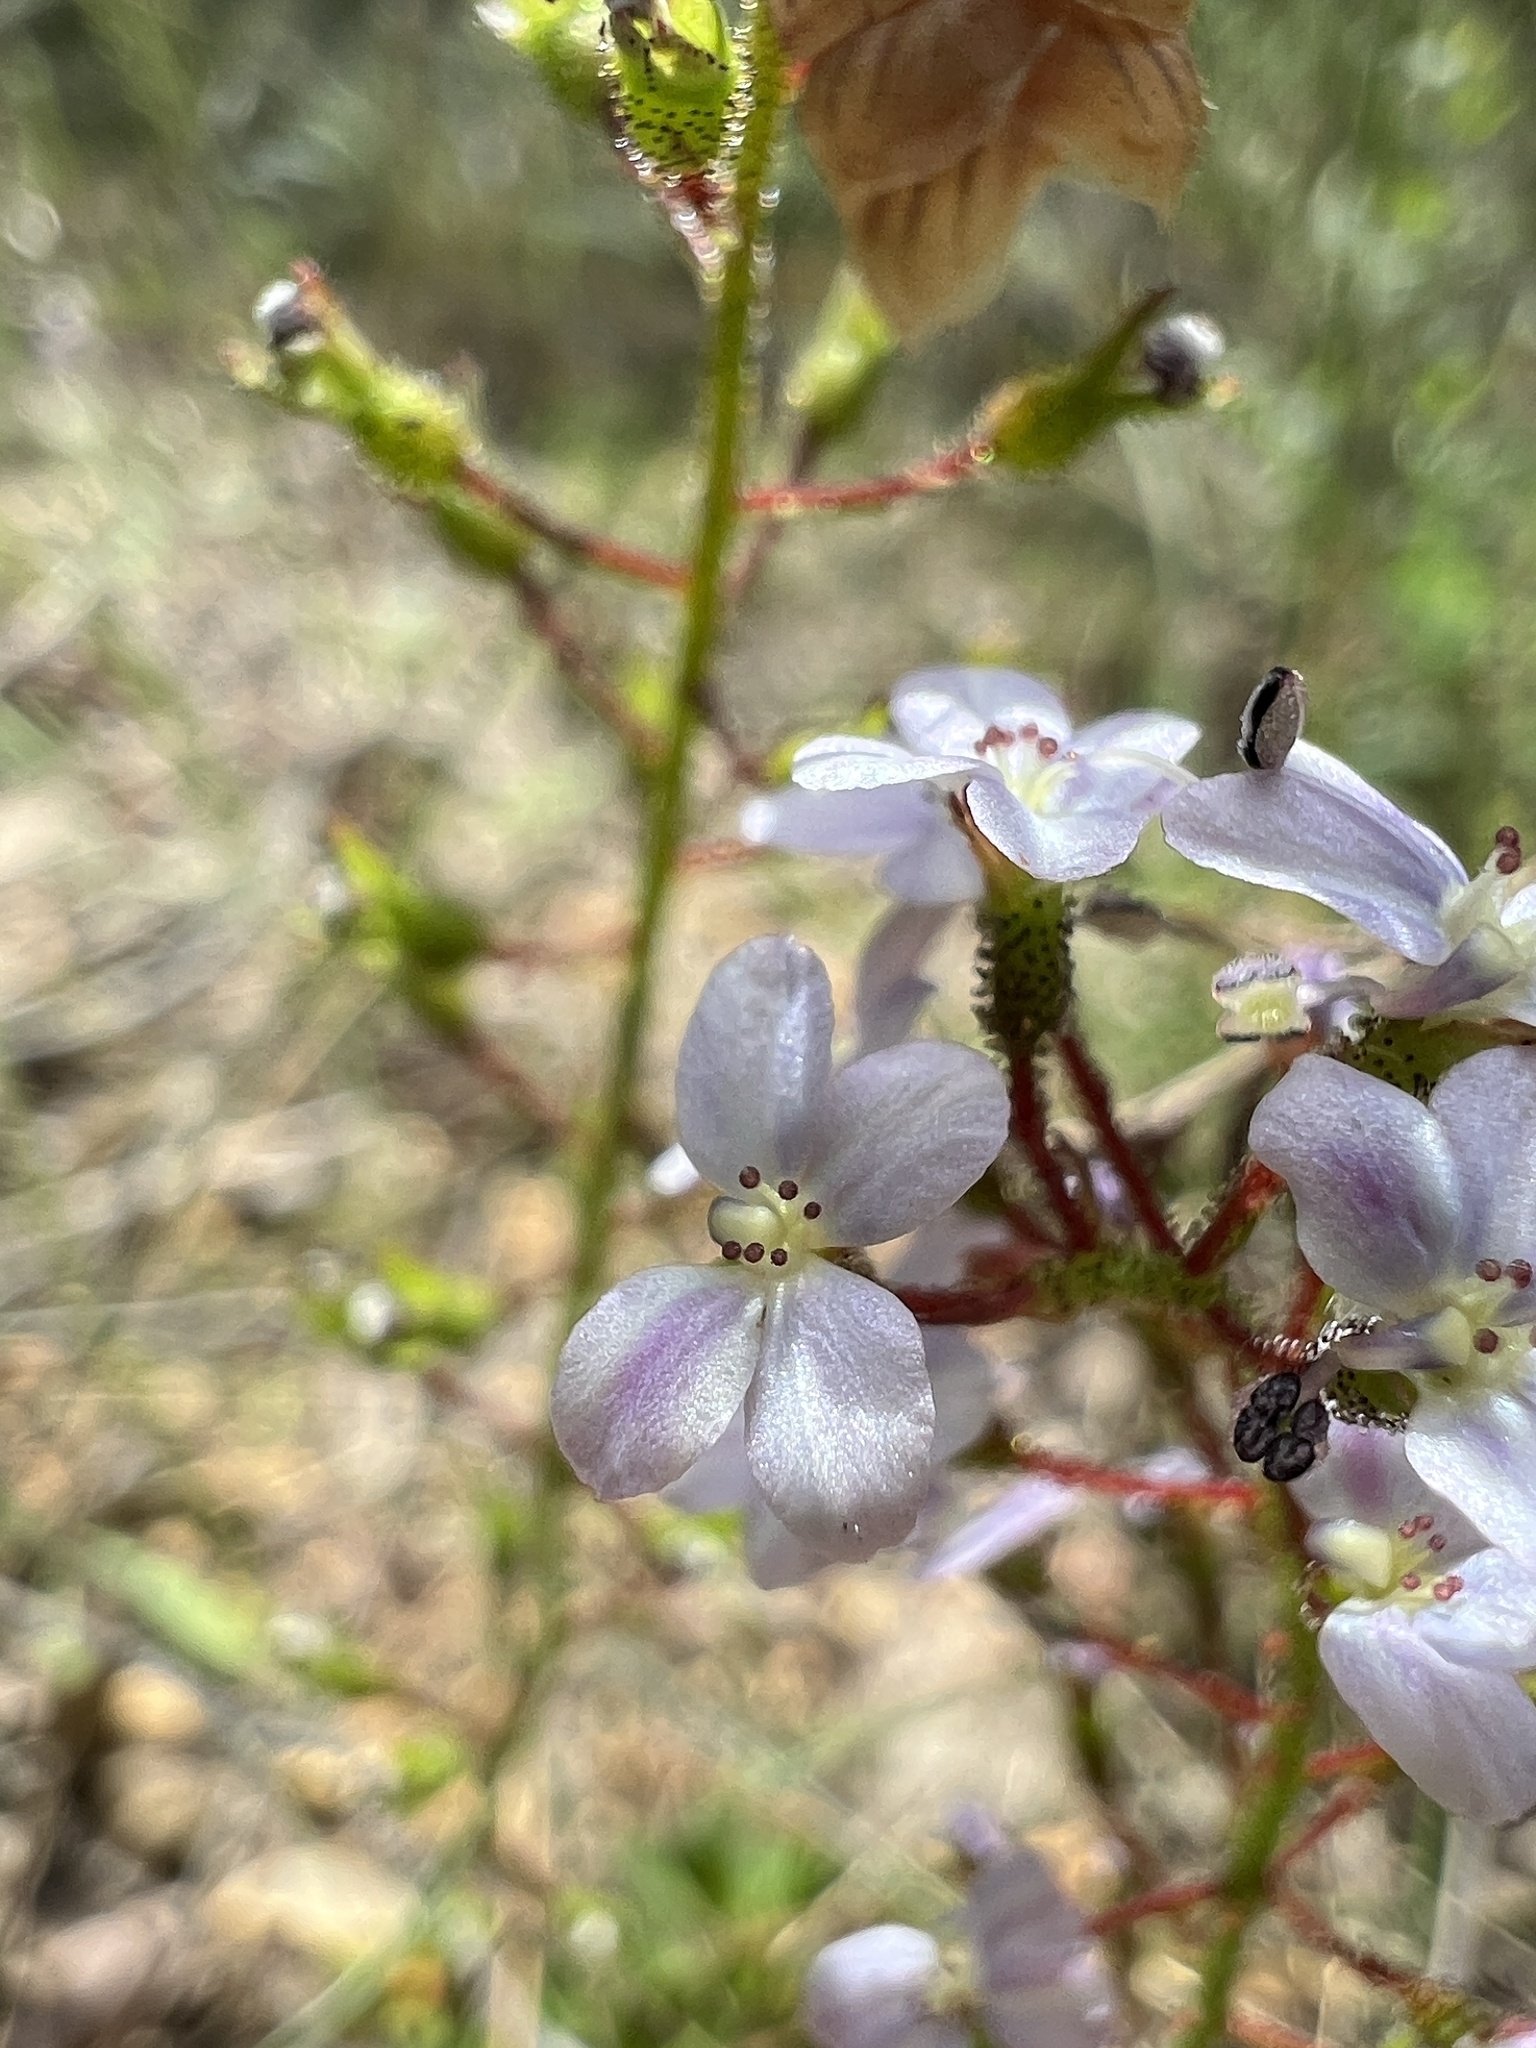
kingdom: Plantae
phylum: Tracheophyta
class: Magnoliopsida
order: Asterales
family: Stylidiaceae
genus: Stylidium
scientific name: Stylidium amoenum
